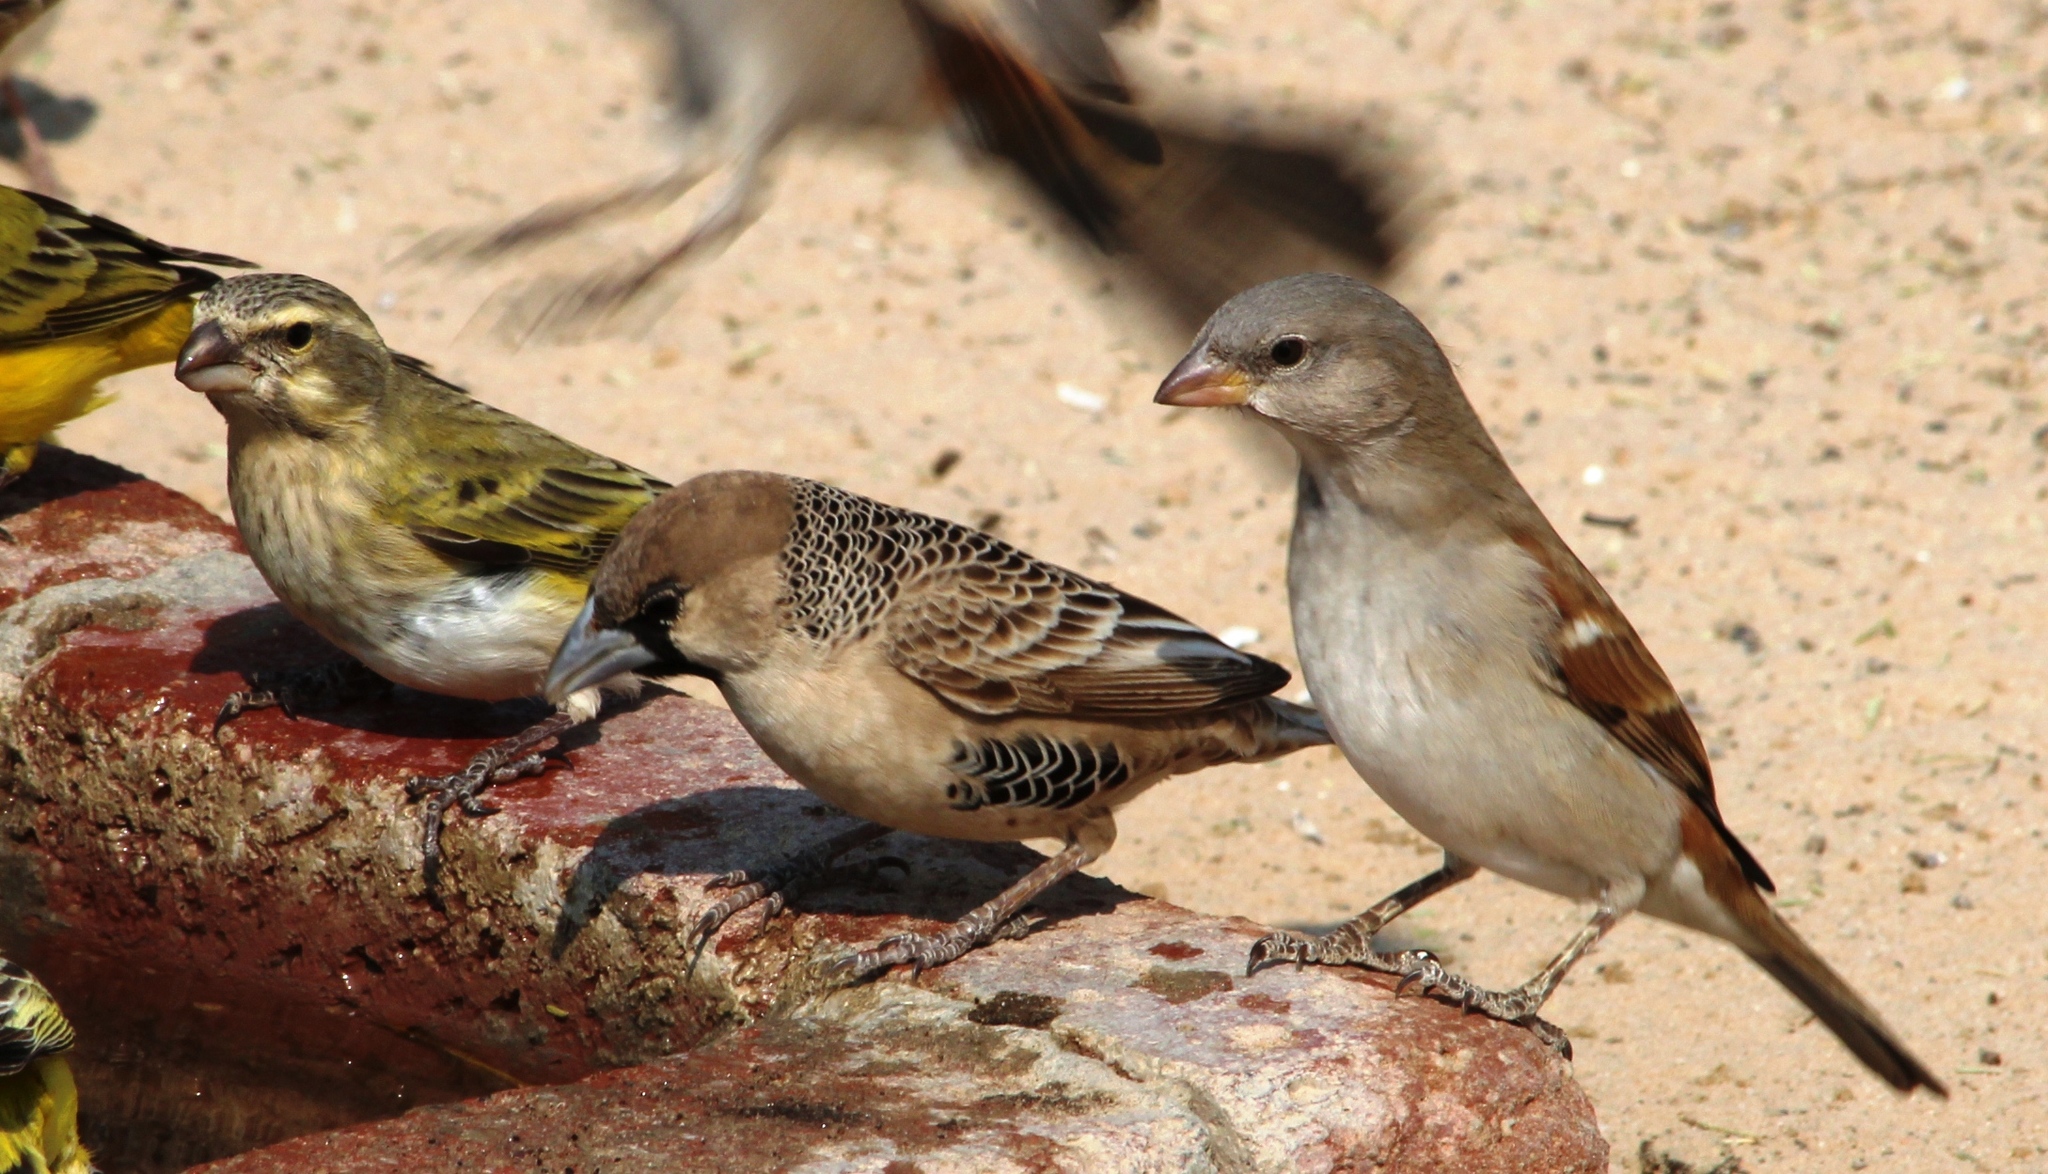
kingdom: Animalia
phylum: Chordata
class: Aves
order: Passeriformes
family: Passeridae
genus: Passer
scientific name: Passer diffusus
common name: Southern grey-headed sparrow
